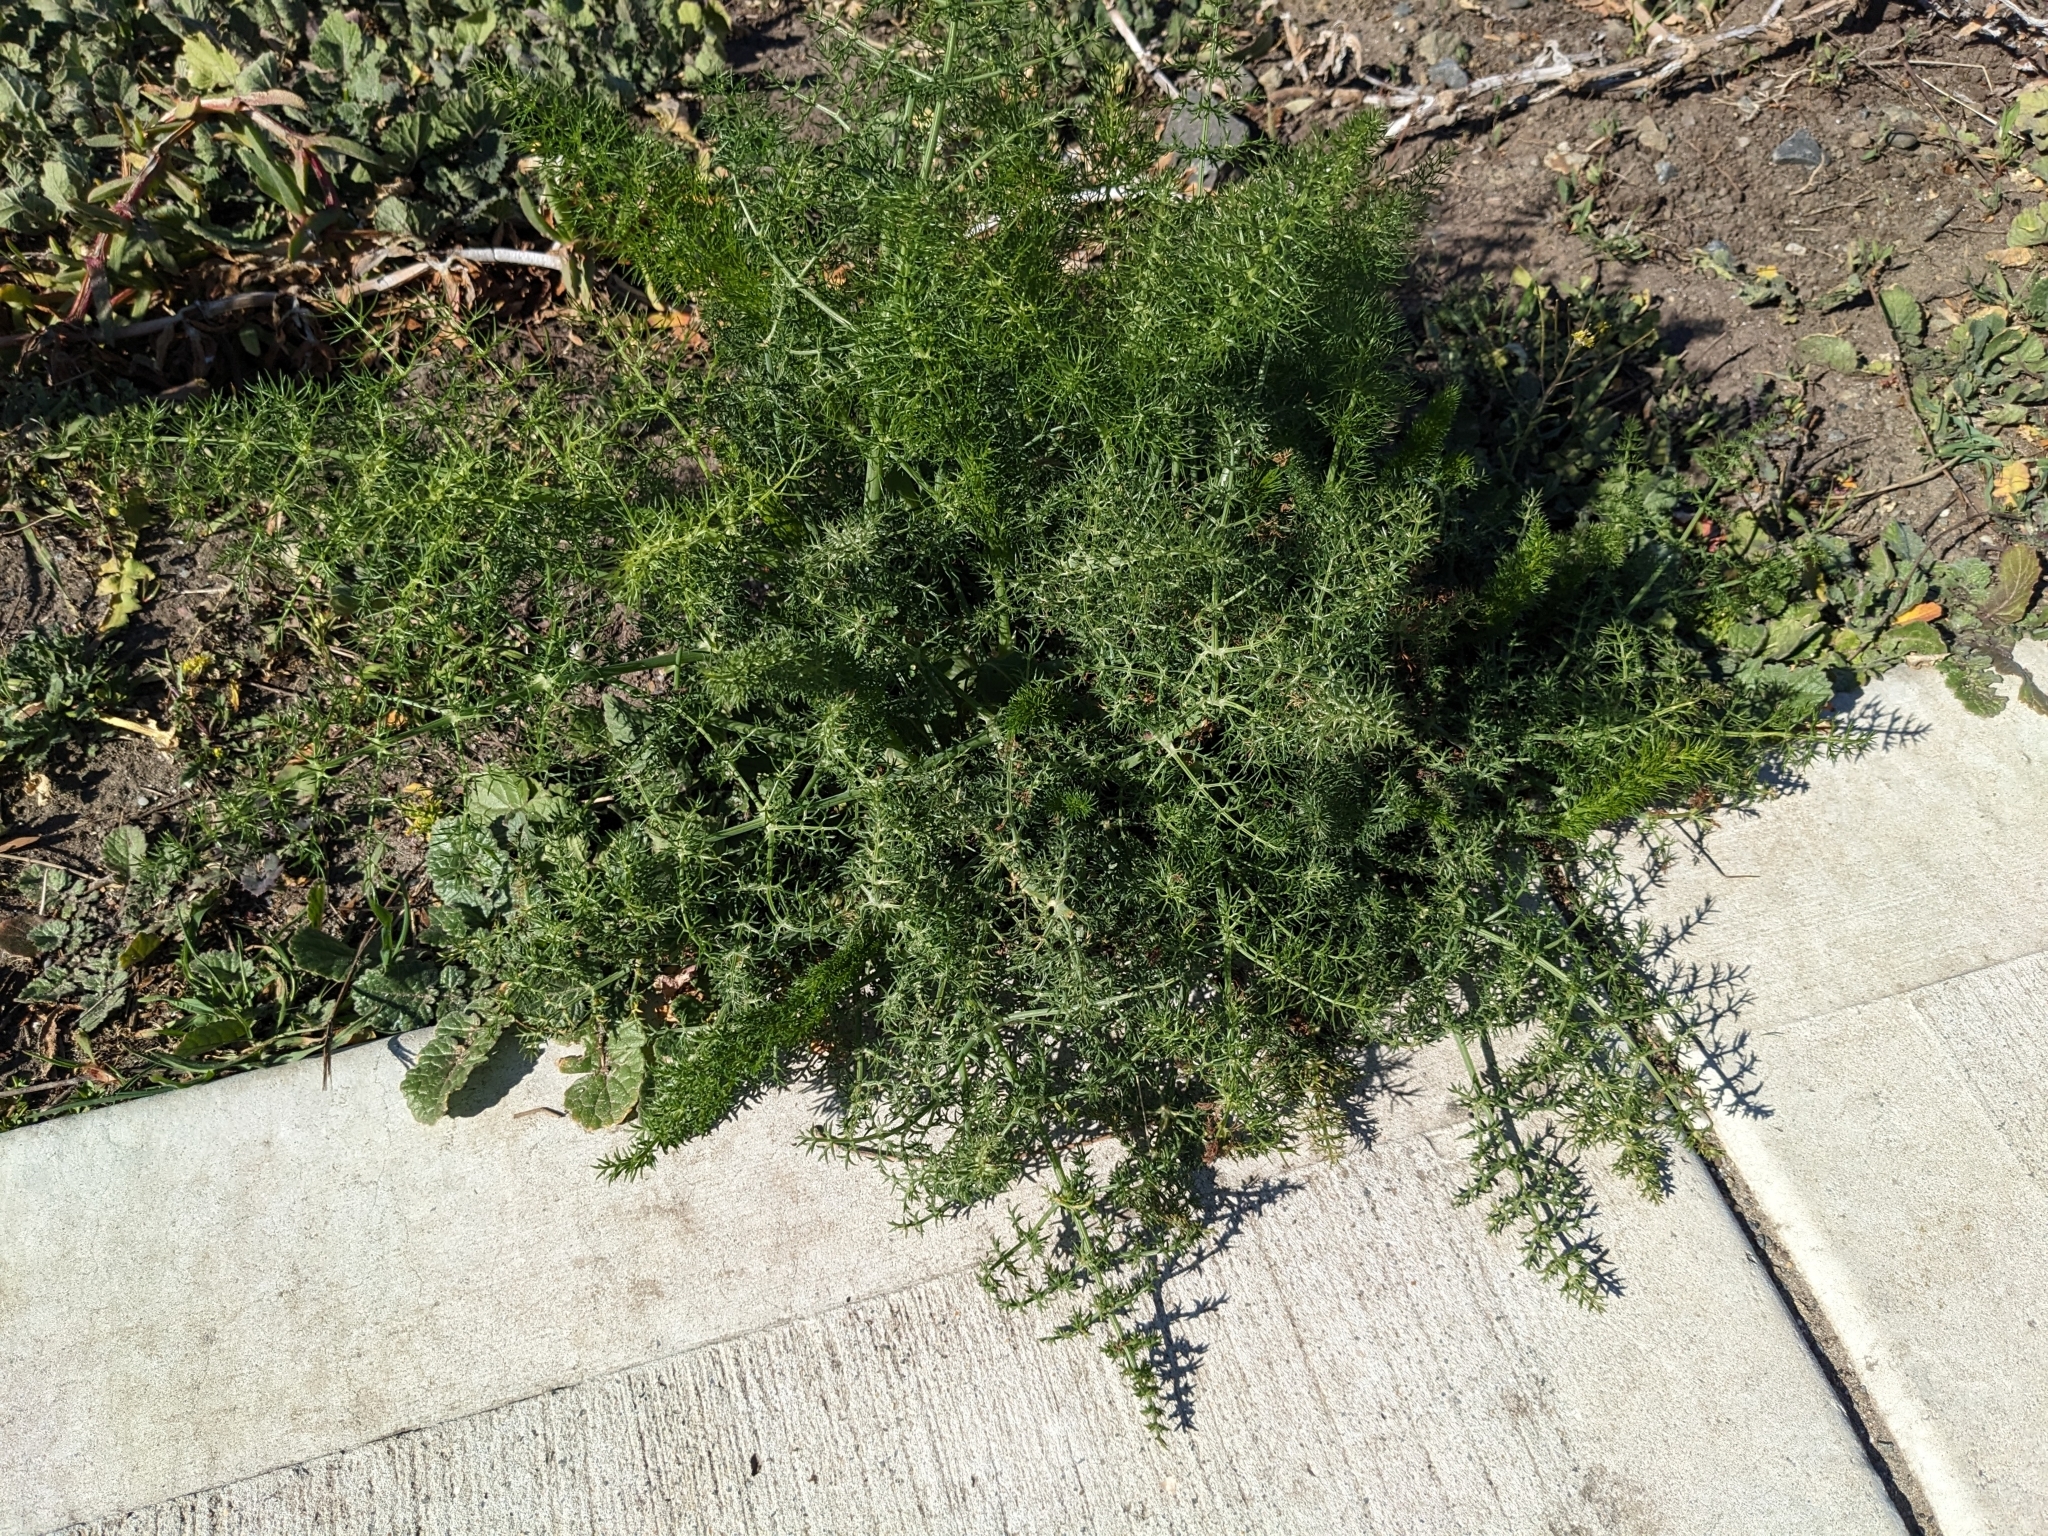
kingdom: Plantae
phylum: Tracheophyta
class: Magnoliopsida
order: Apiales
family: Apiaceae
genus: Foeniculum
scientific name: Foeniculum vulgare
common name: Fennel
